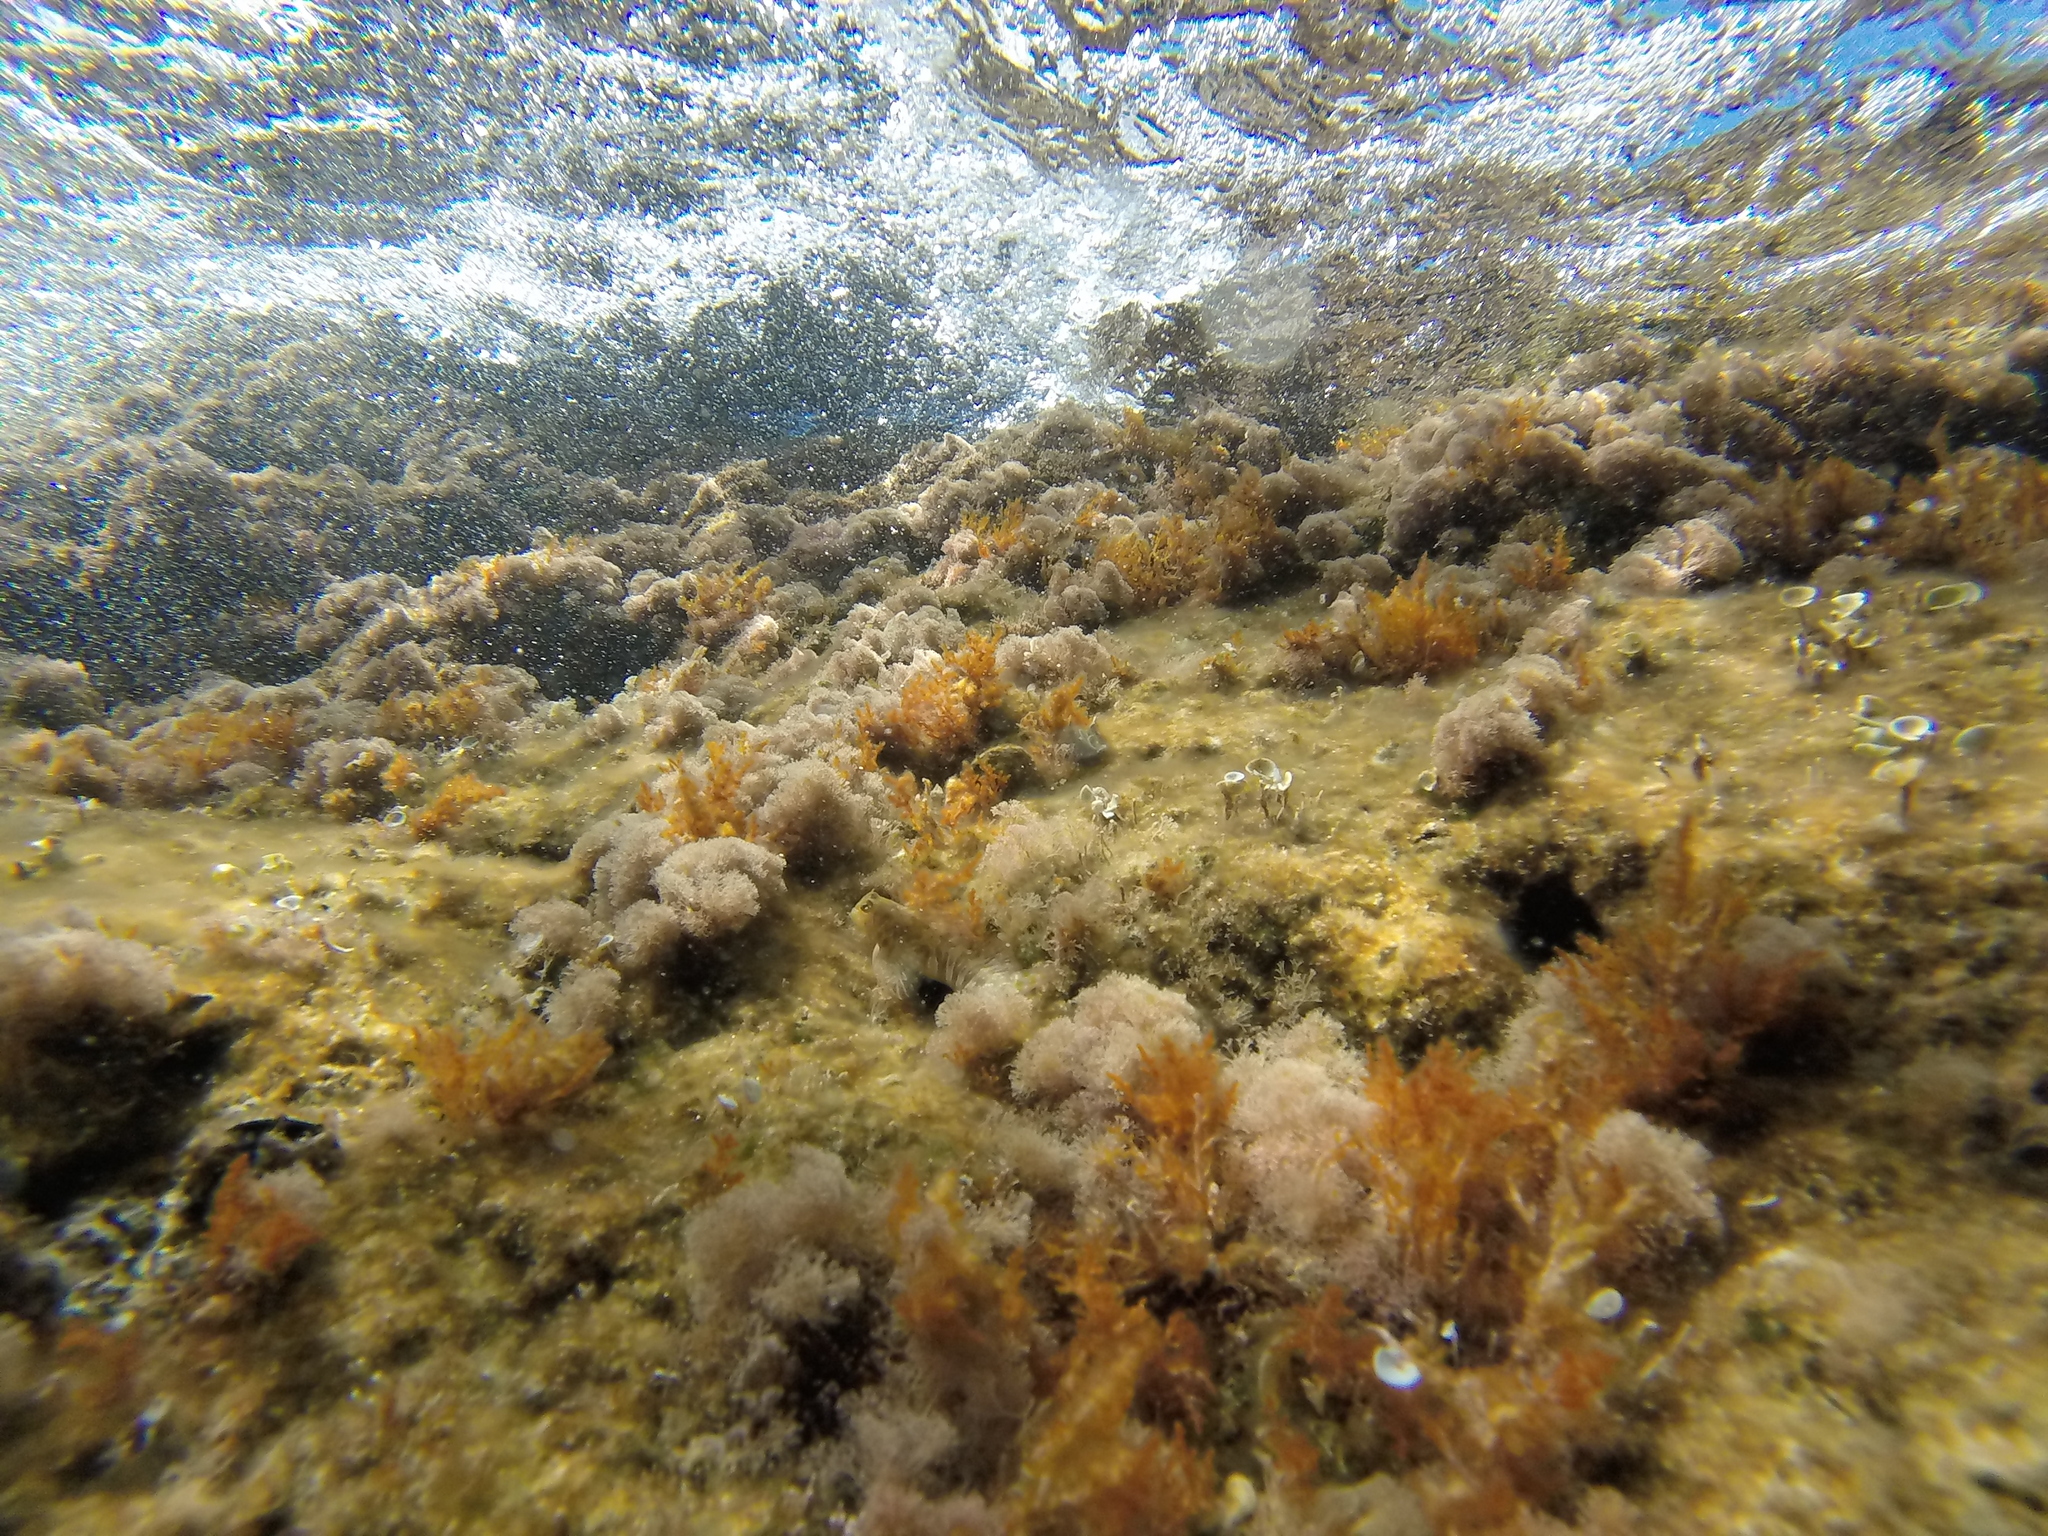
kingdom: Animalia
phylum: Chordata
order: Perciformes
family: Blenniidae
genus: Aidablennius
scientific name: Aidablennius sphynx
